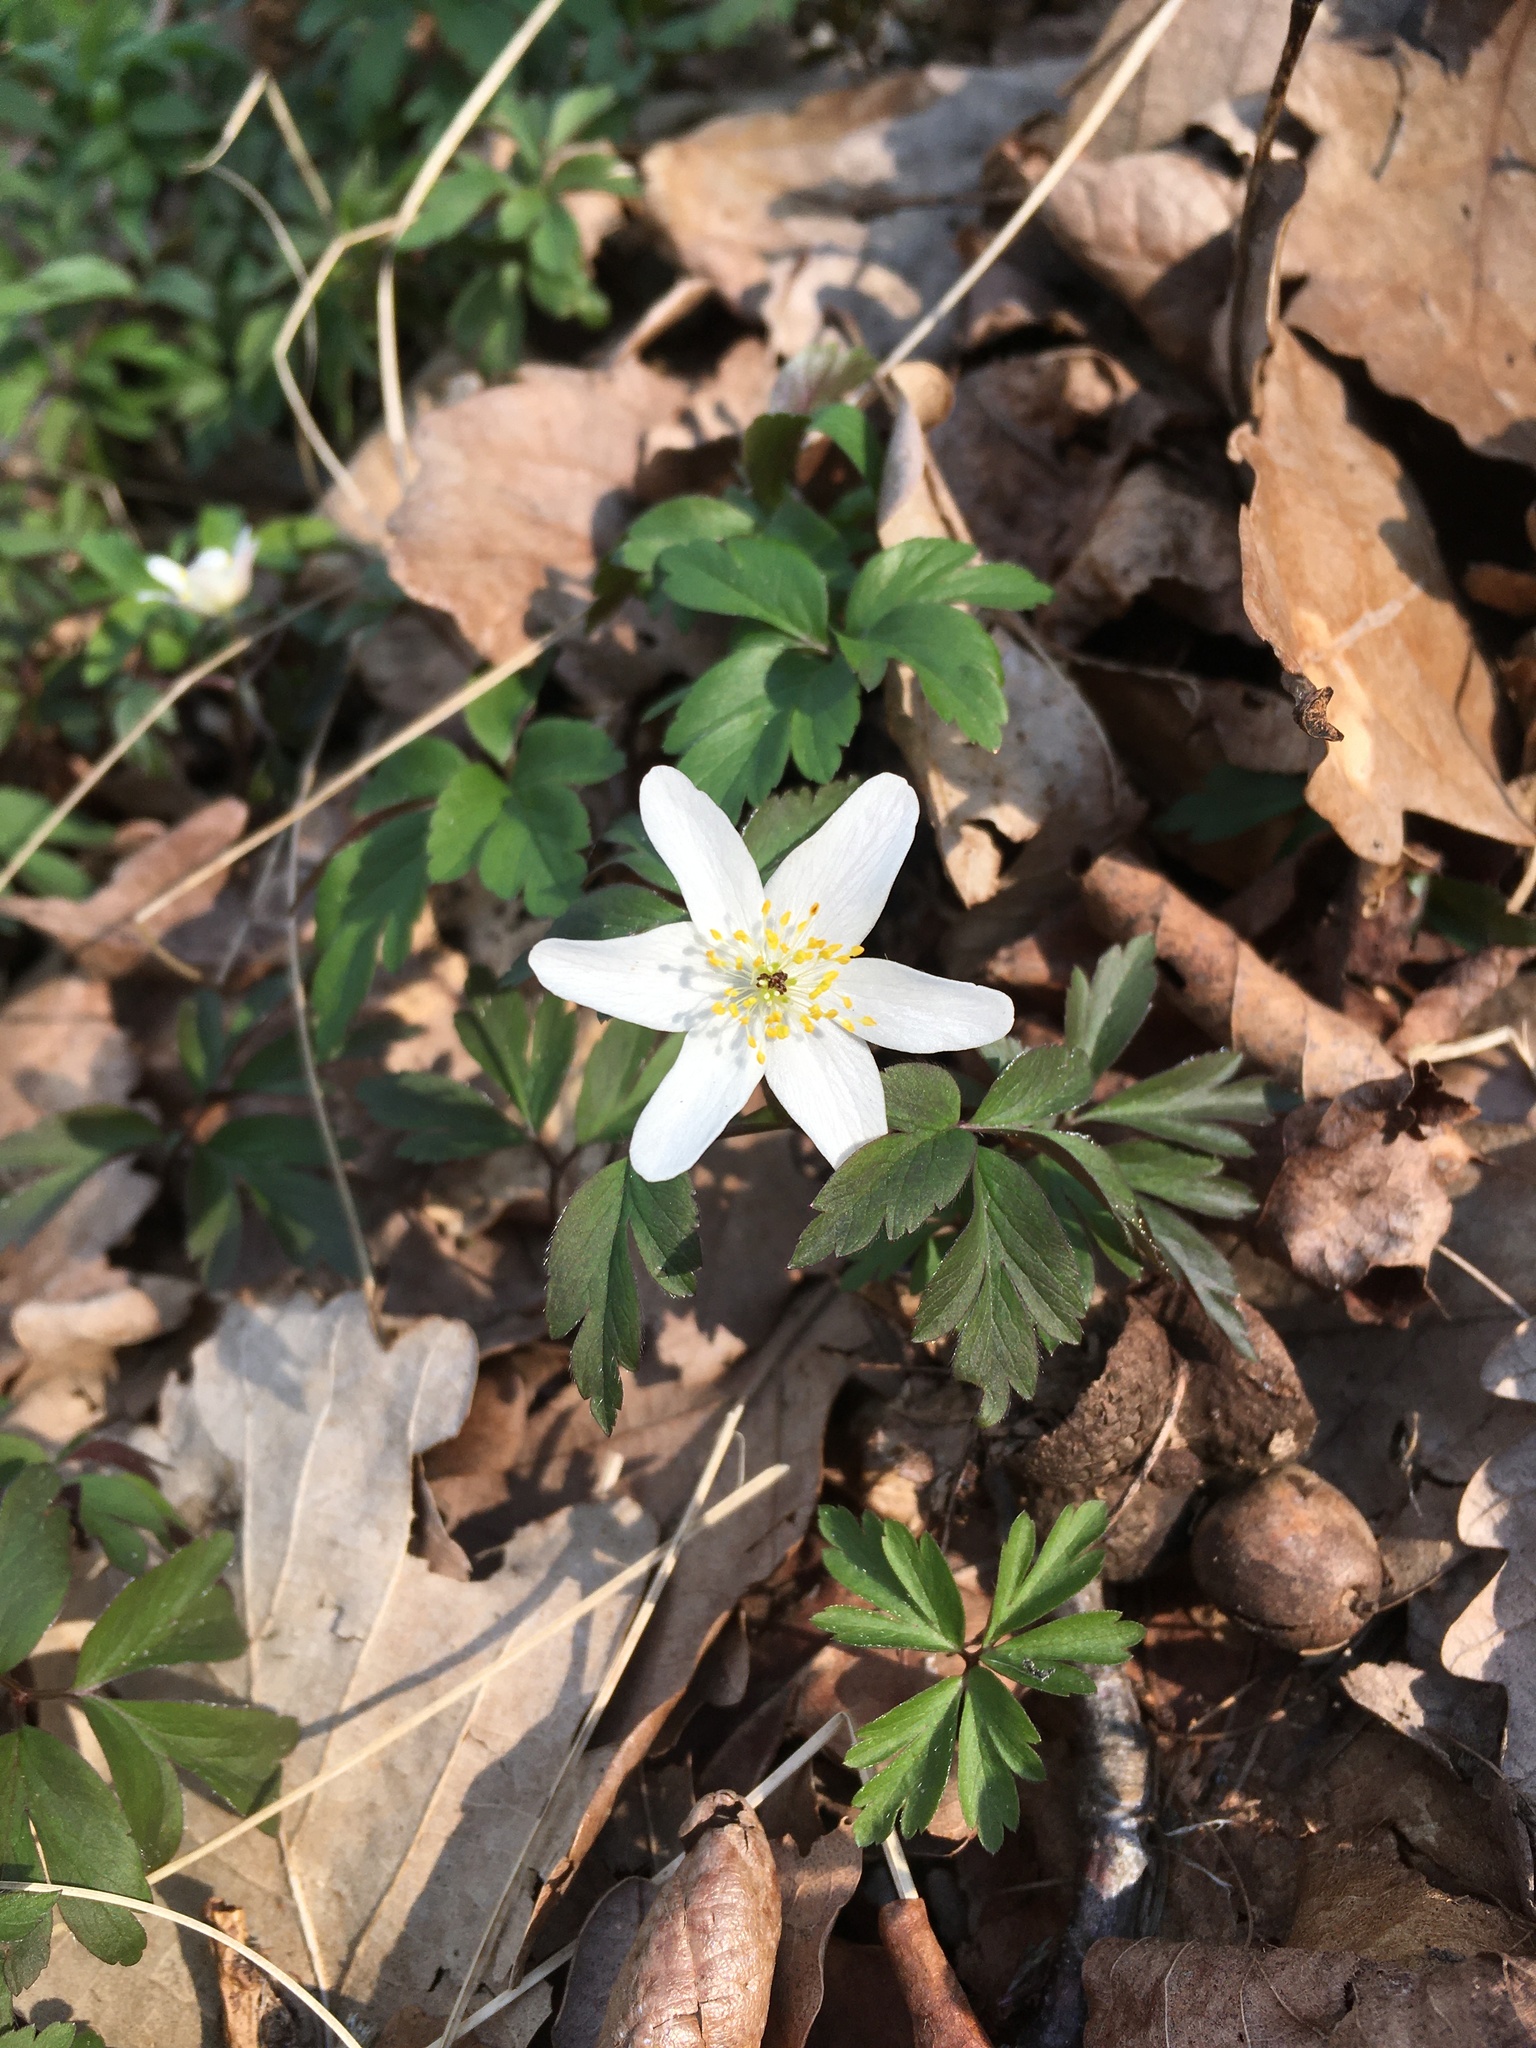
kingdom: Plantae
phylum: Tracheophyta
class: Magnoliopsida
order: Ranunculales
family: Ranunculaceae
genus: Anemone
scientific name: Anemone nemorosa
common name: Wood anemone
